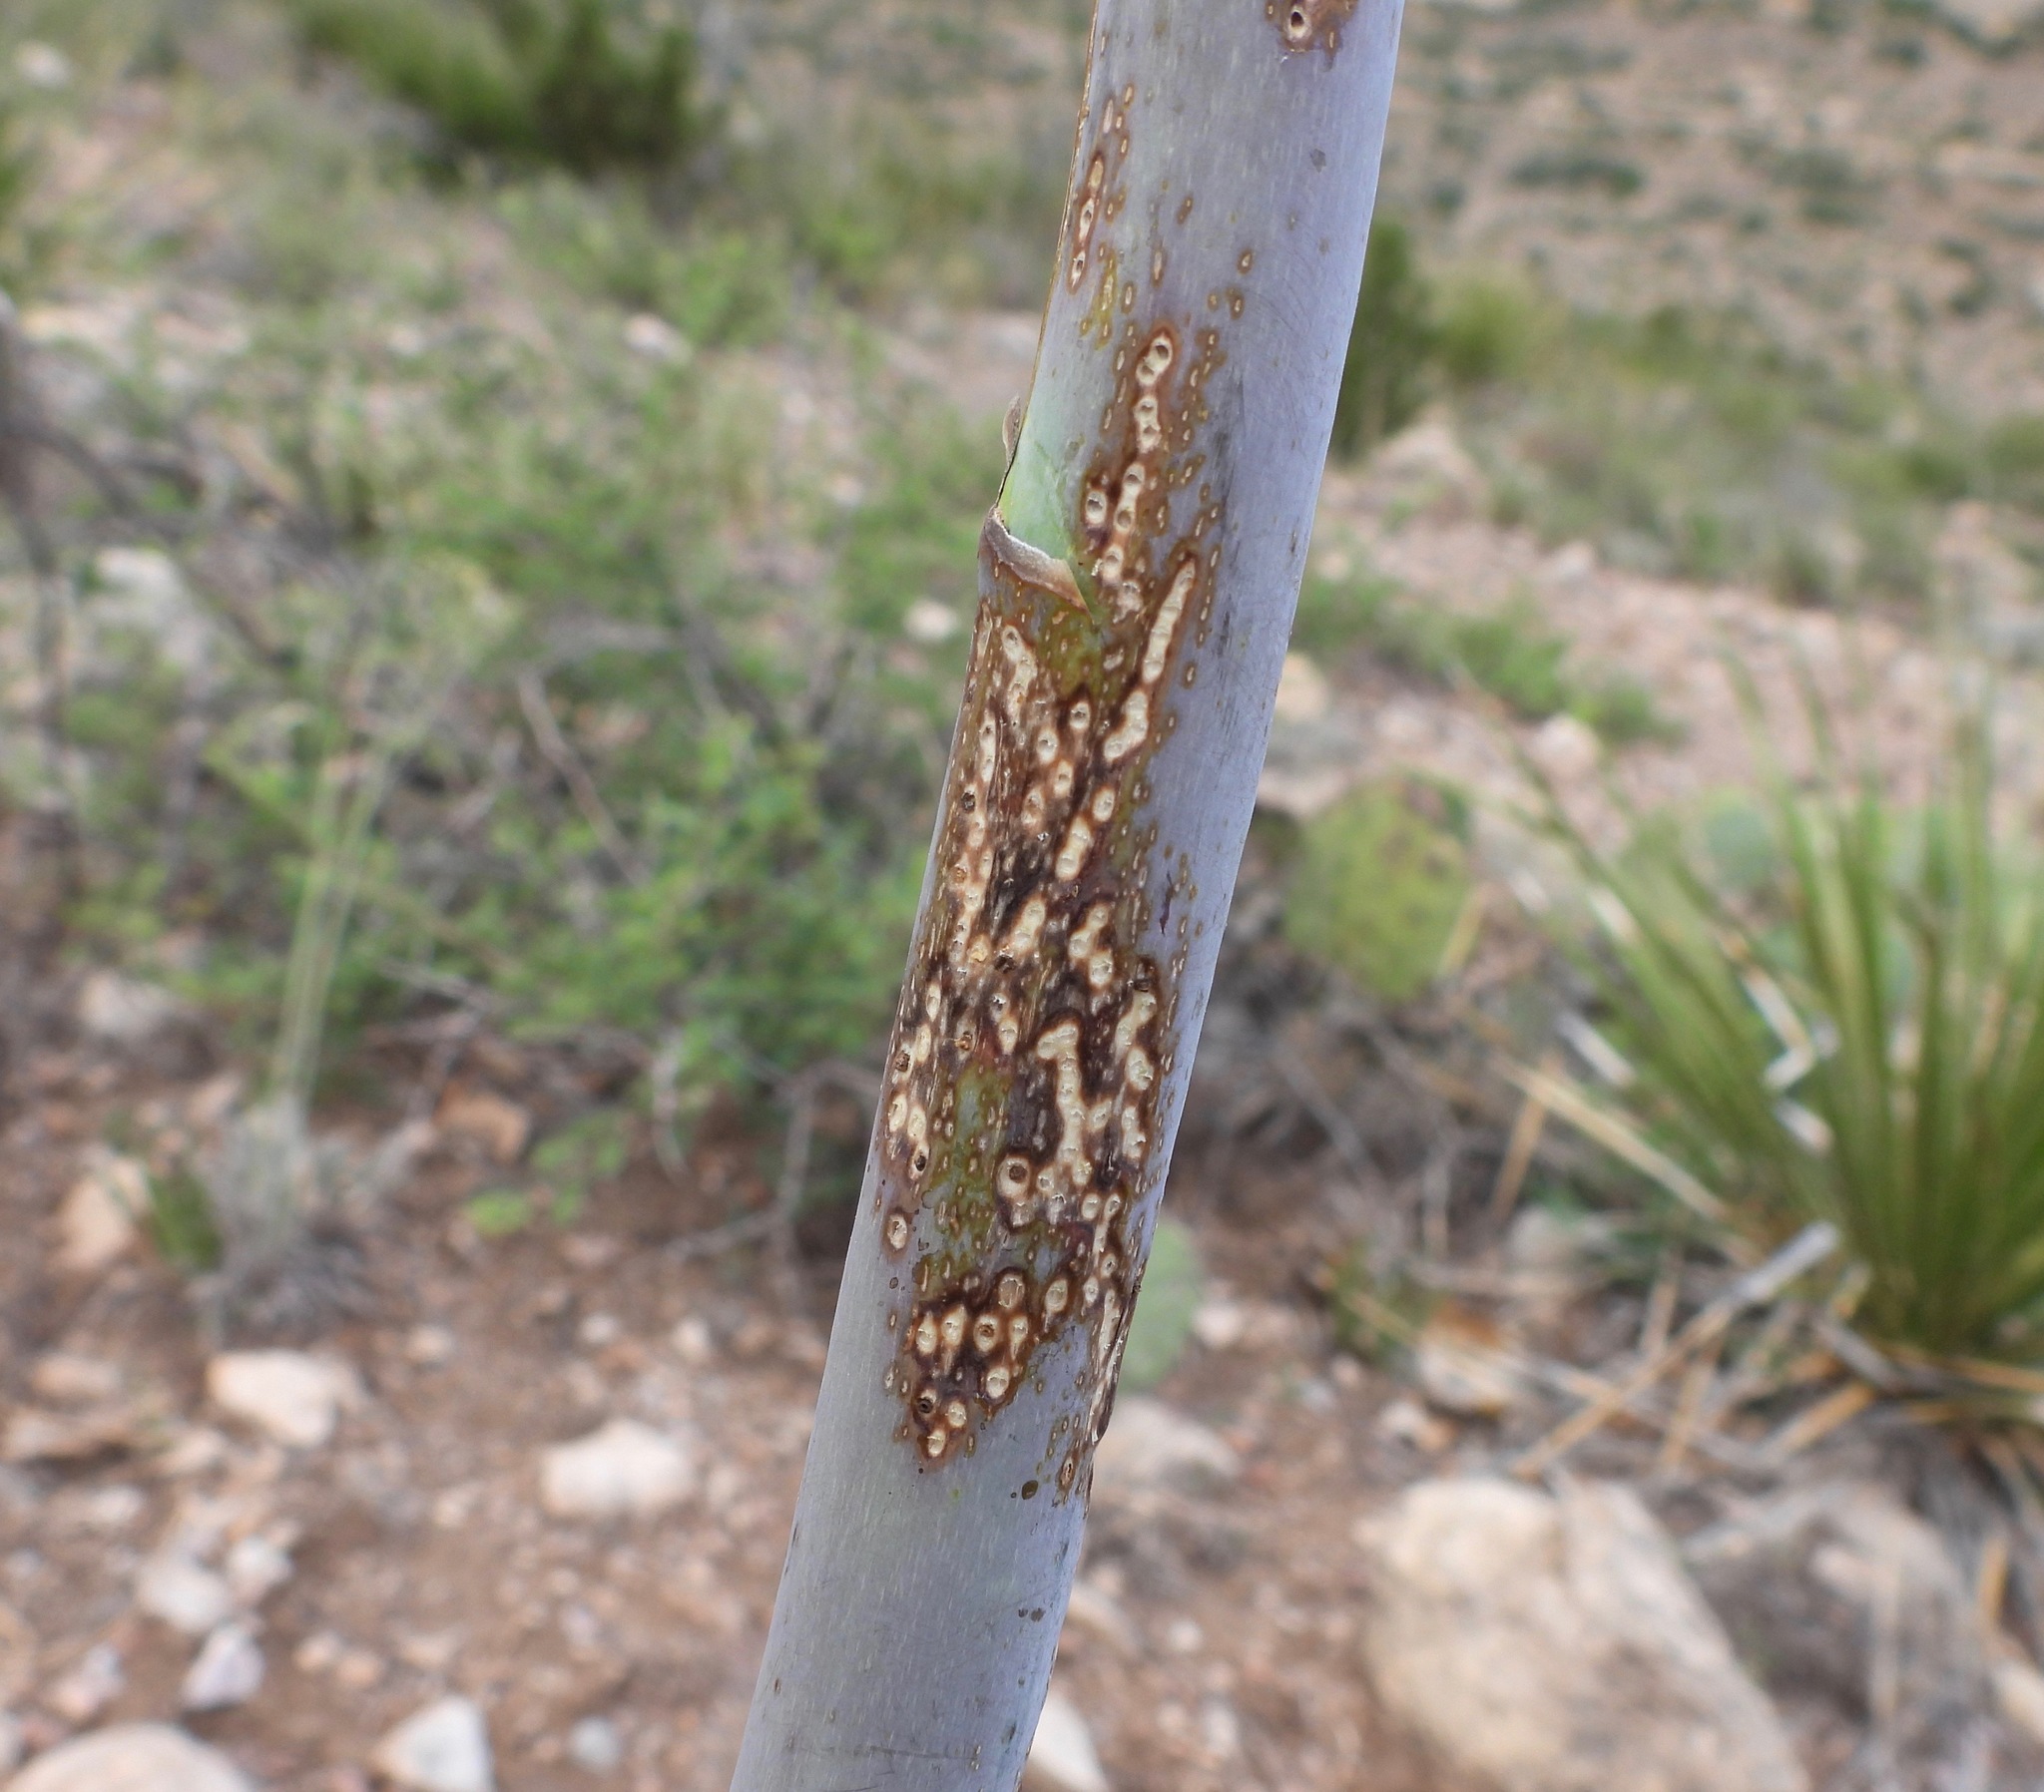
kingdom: Plantae
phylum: Tracheophyta
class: Liliopsida
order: Asparagales
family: Asparagaceae
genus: Agave
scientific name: Agave lechuguilla
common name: Lecheguilla agave
